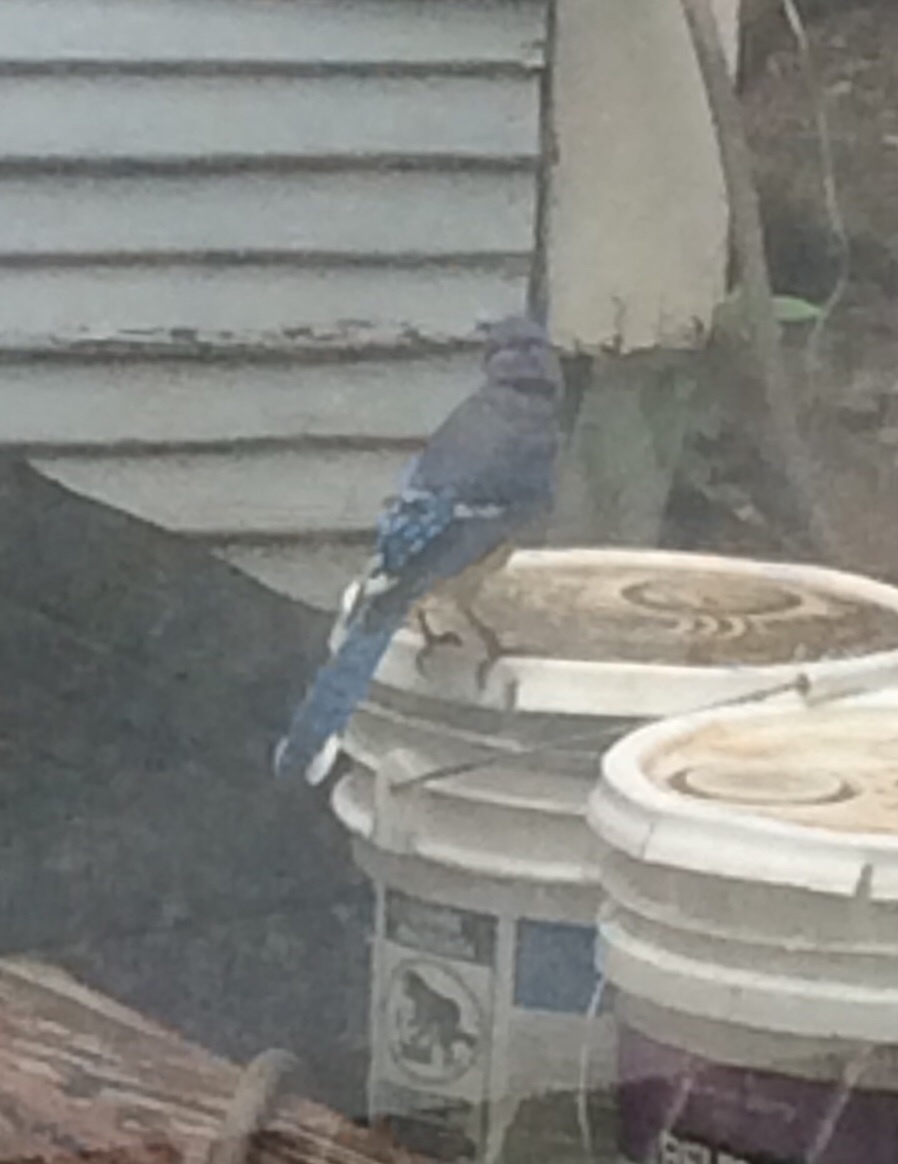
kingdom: Animalia
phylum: Chordata
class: Aves
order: Passeriformes
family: Corvidae
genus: Cyanocitta
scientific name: Cyanocitta cristata
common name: Blue jay
